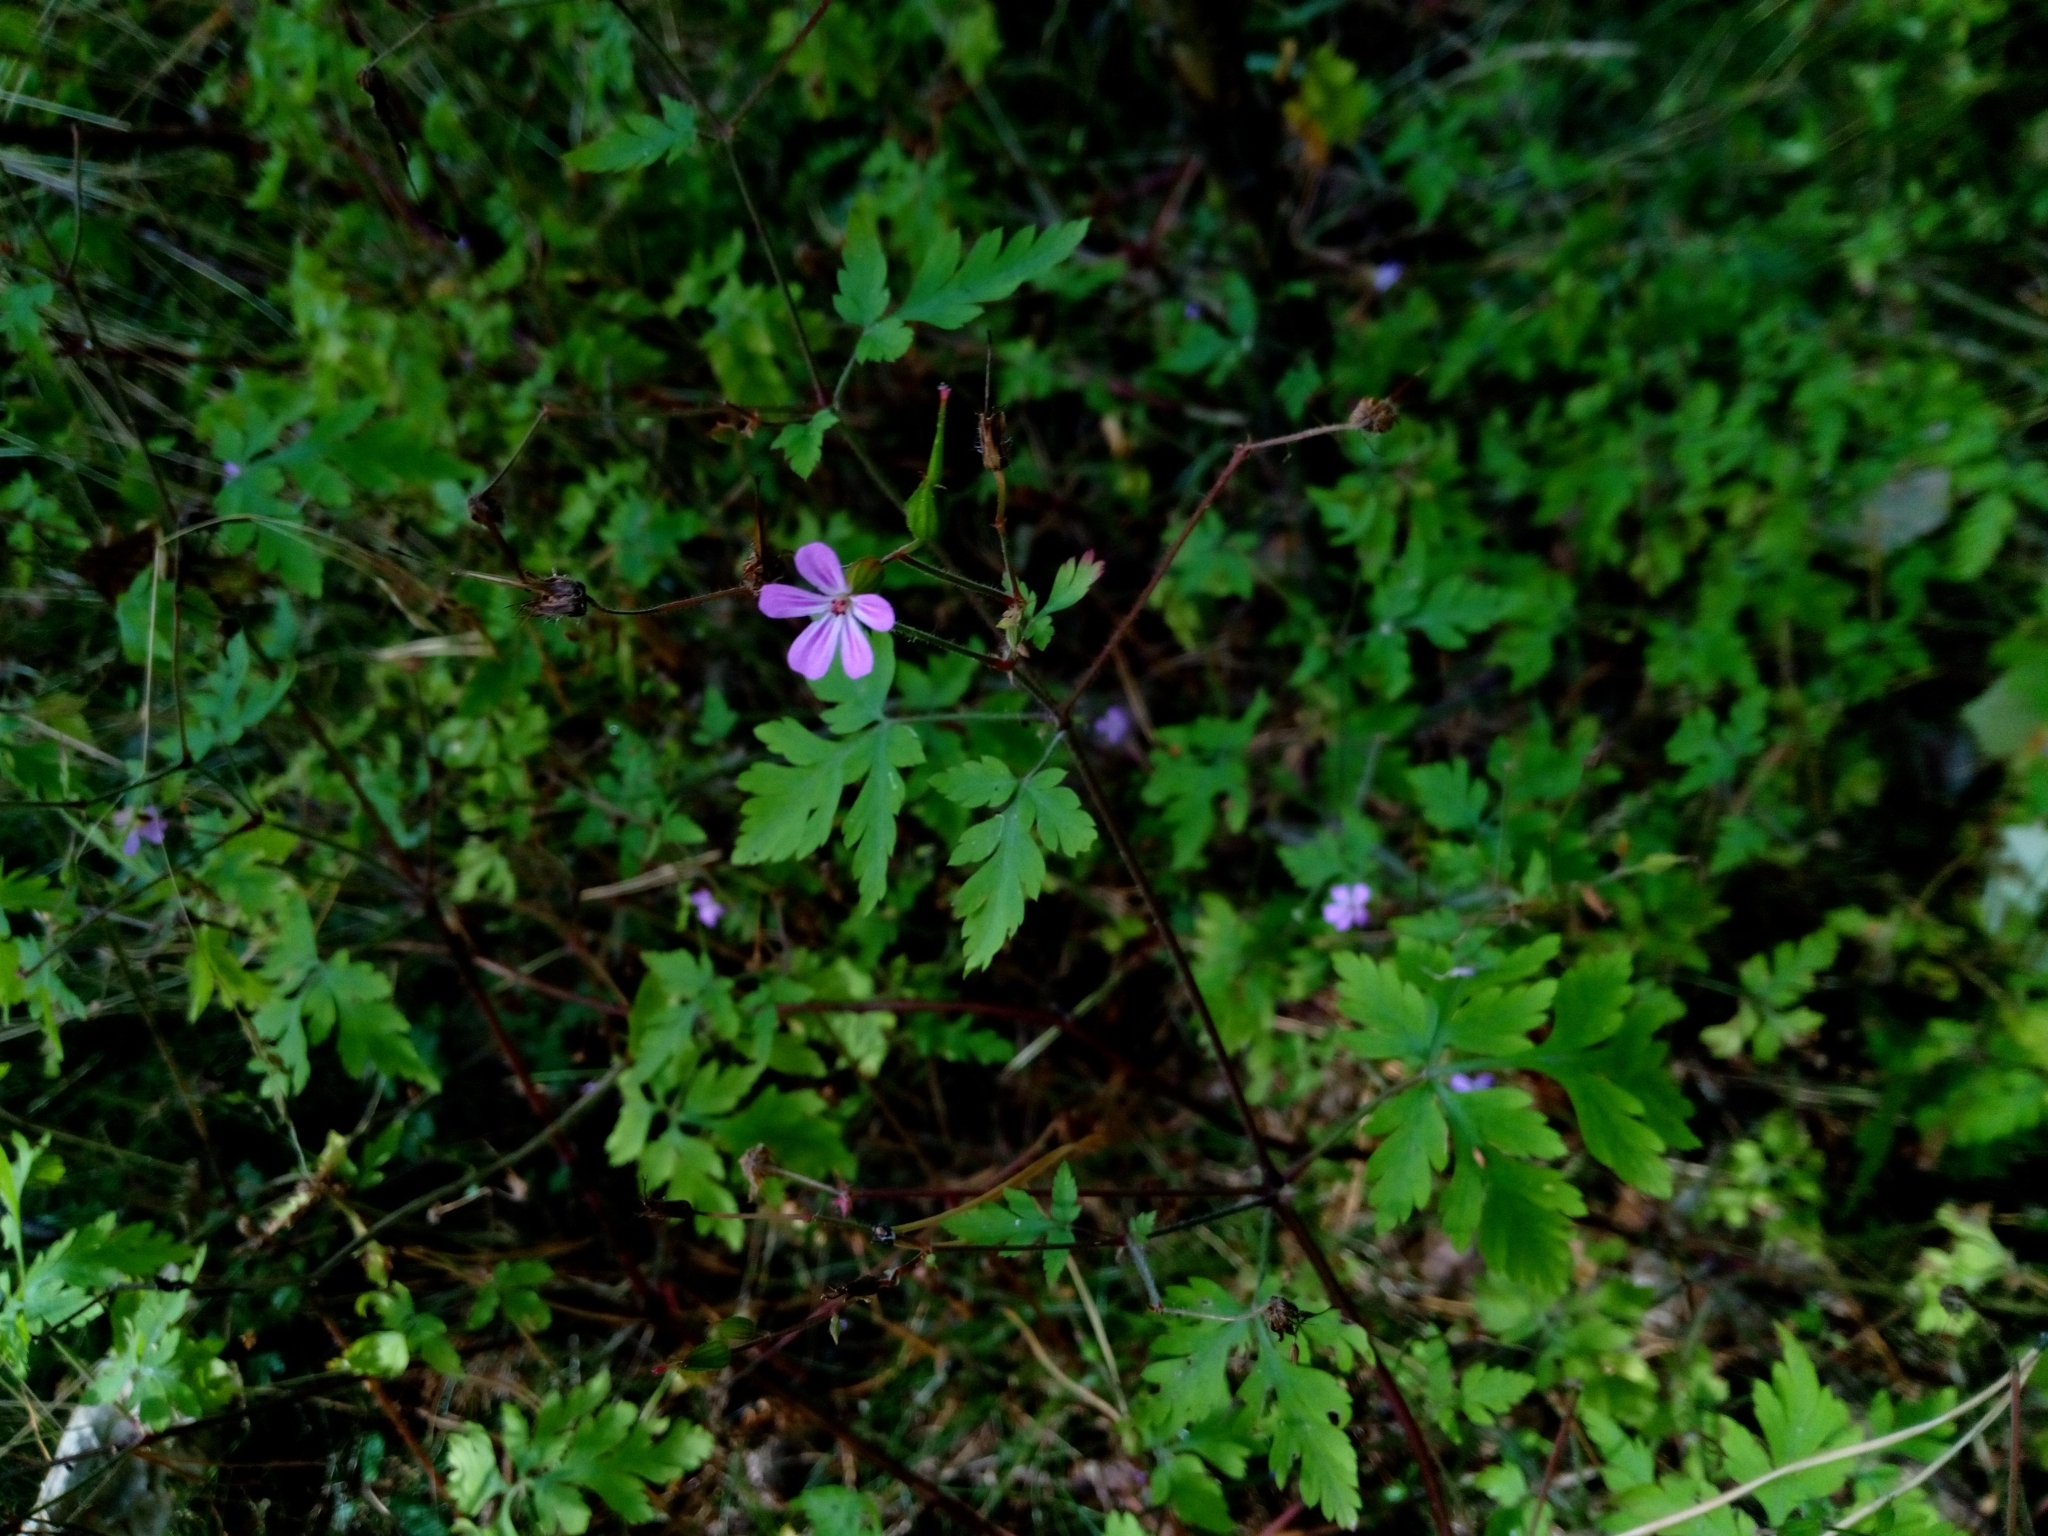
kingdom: Plantae
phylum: Tracheophyta
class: Magnoliopsida
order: Geraniales
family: Geraniaceae
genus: Geranium
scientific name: Geranium robertianum
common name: Herb-robert
